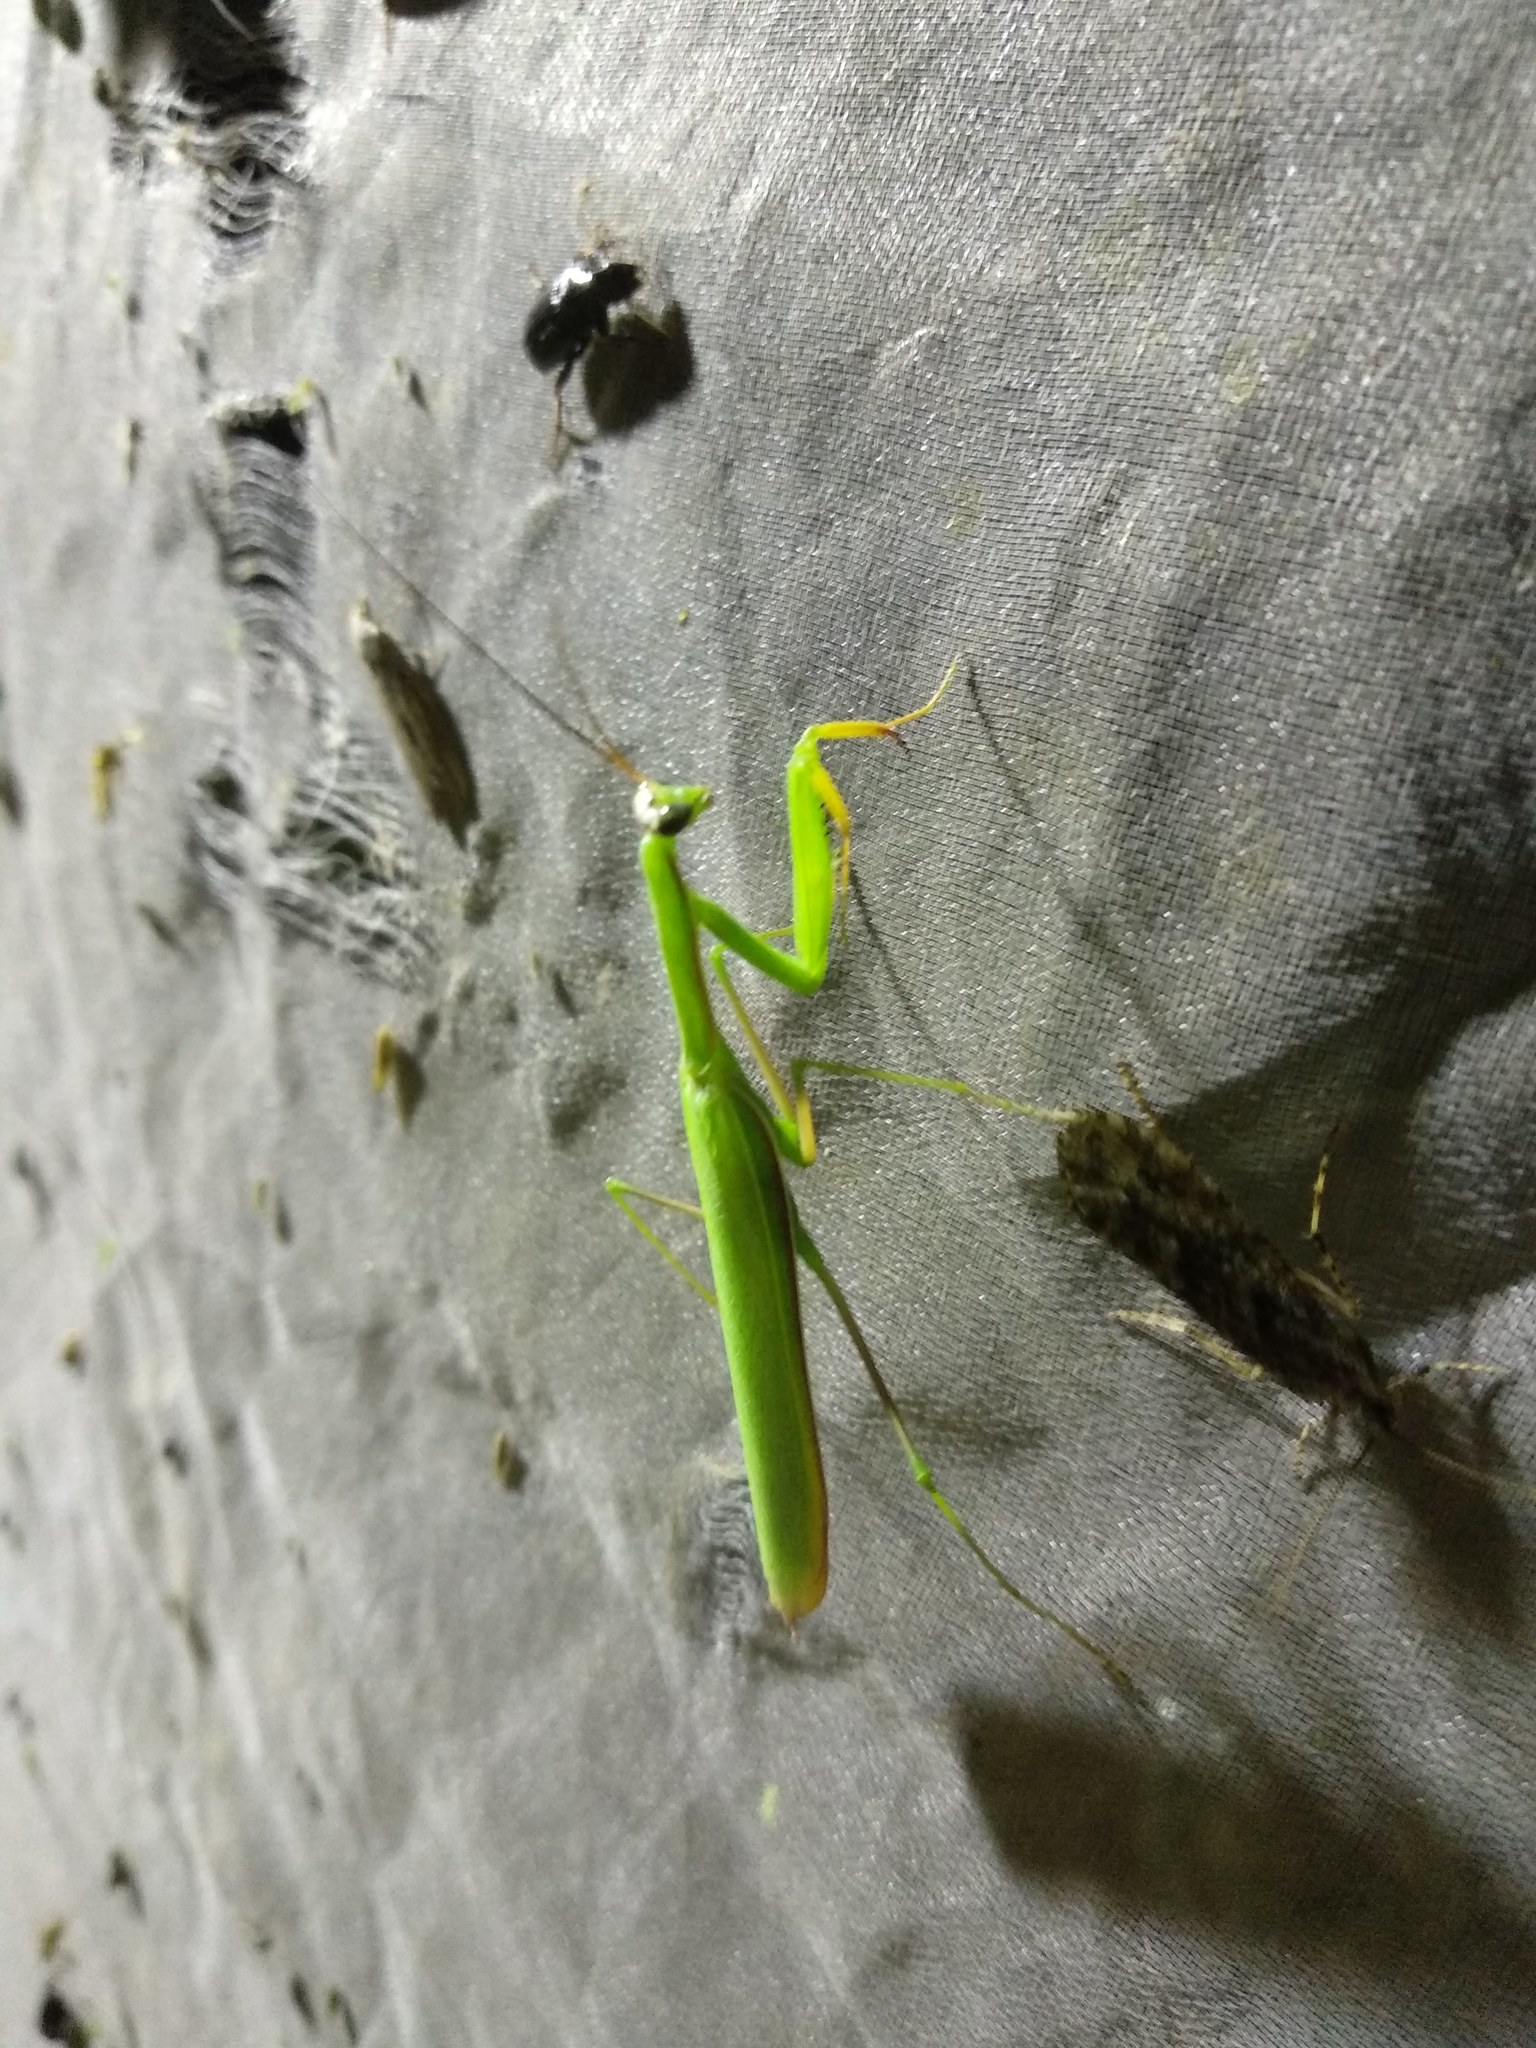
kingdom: Animalia
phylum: Arthropoda
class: Insecta
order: Mantodea
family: Mantidae
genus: Mantis
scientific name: Mantis religiosa
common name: Praying mantis
